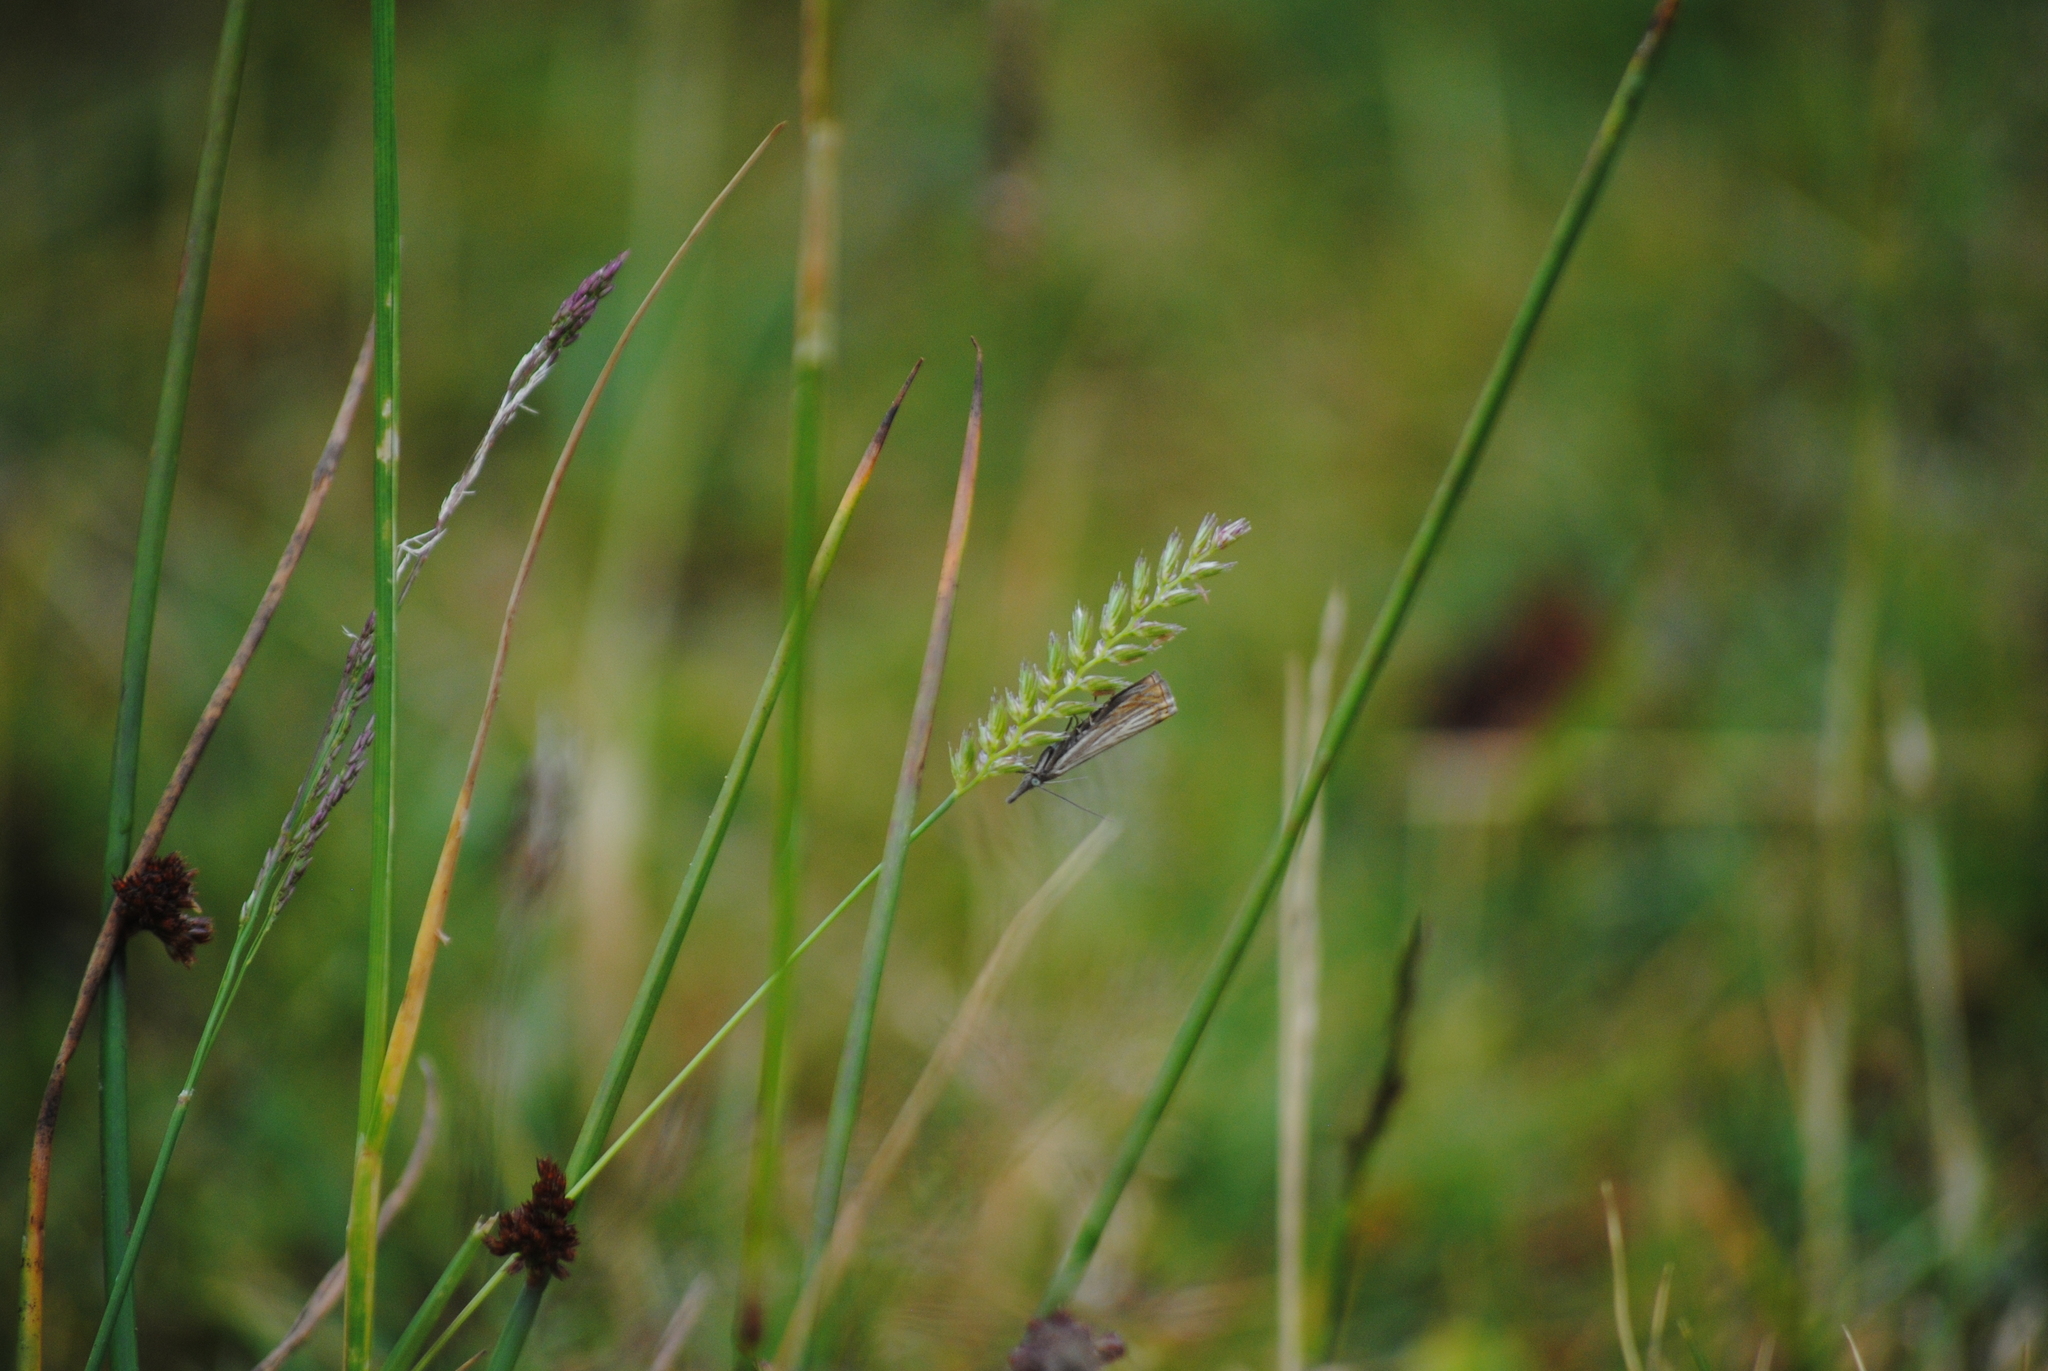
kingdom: Animalia
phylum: Arthropoda
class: Insecta
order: Lepidoptera
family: Crambidae
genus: Chrysoteuchia
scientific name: Chrysoteuchia culmella
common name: Garden grass-veneer
